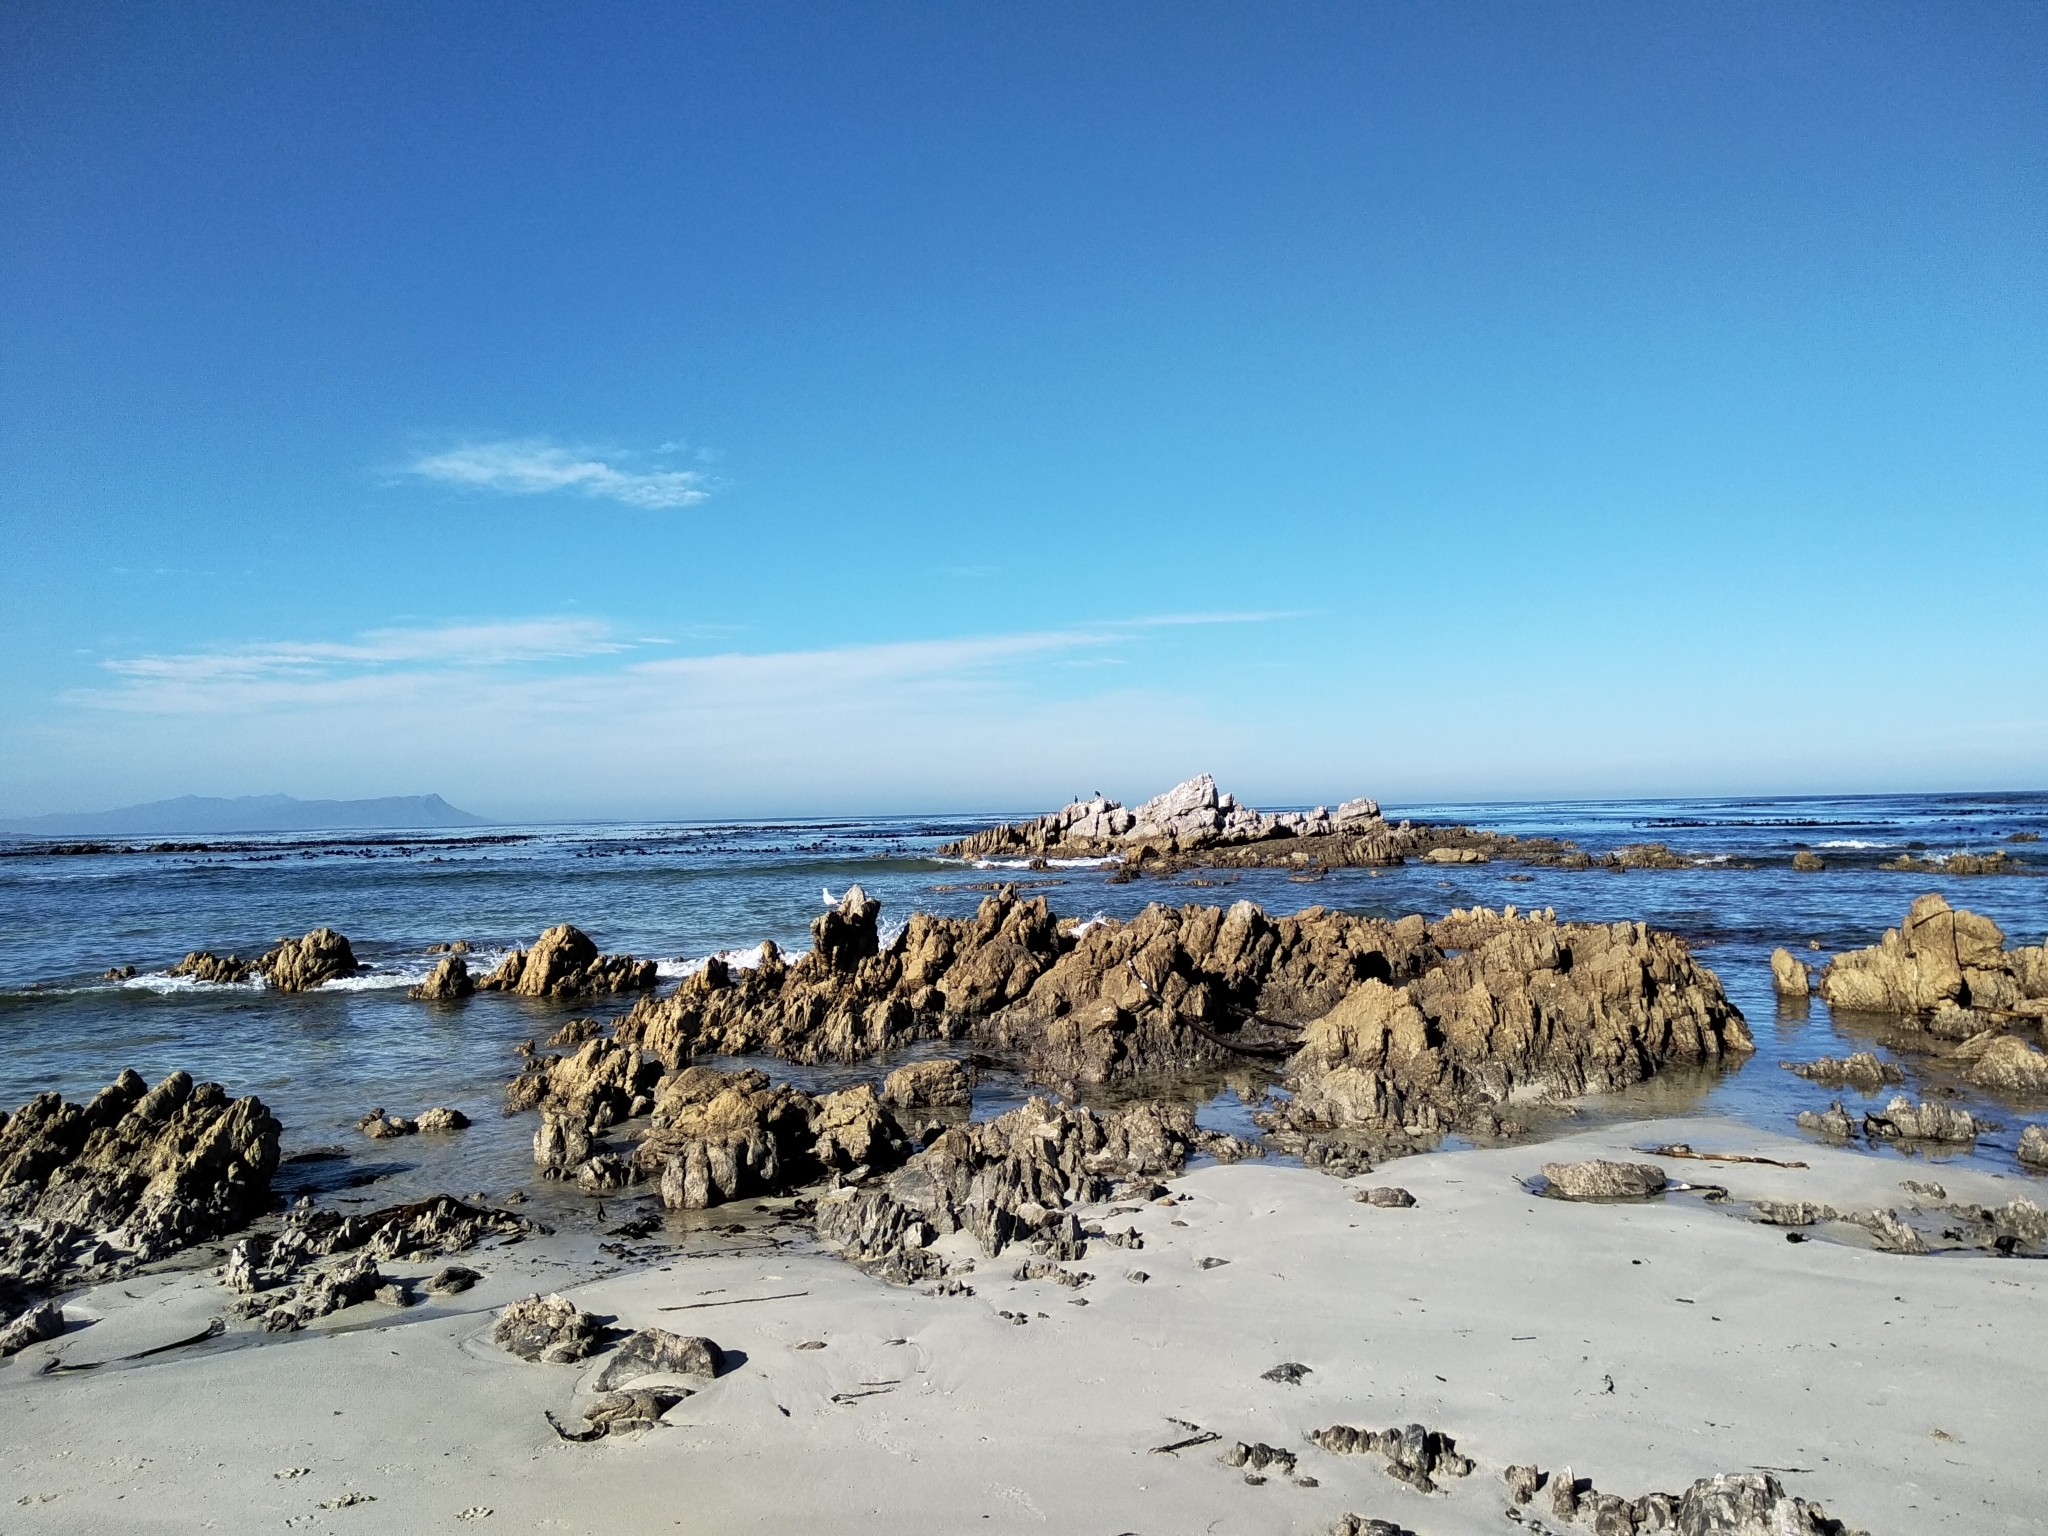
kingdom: Animalia
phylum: Chordata
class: Aves
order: Suliformes
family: Phalacrocoracidae
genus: Phalacrocorax
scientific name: Phalacrocorax carbo
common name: Great cormorant
